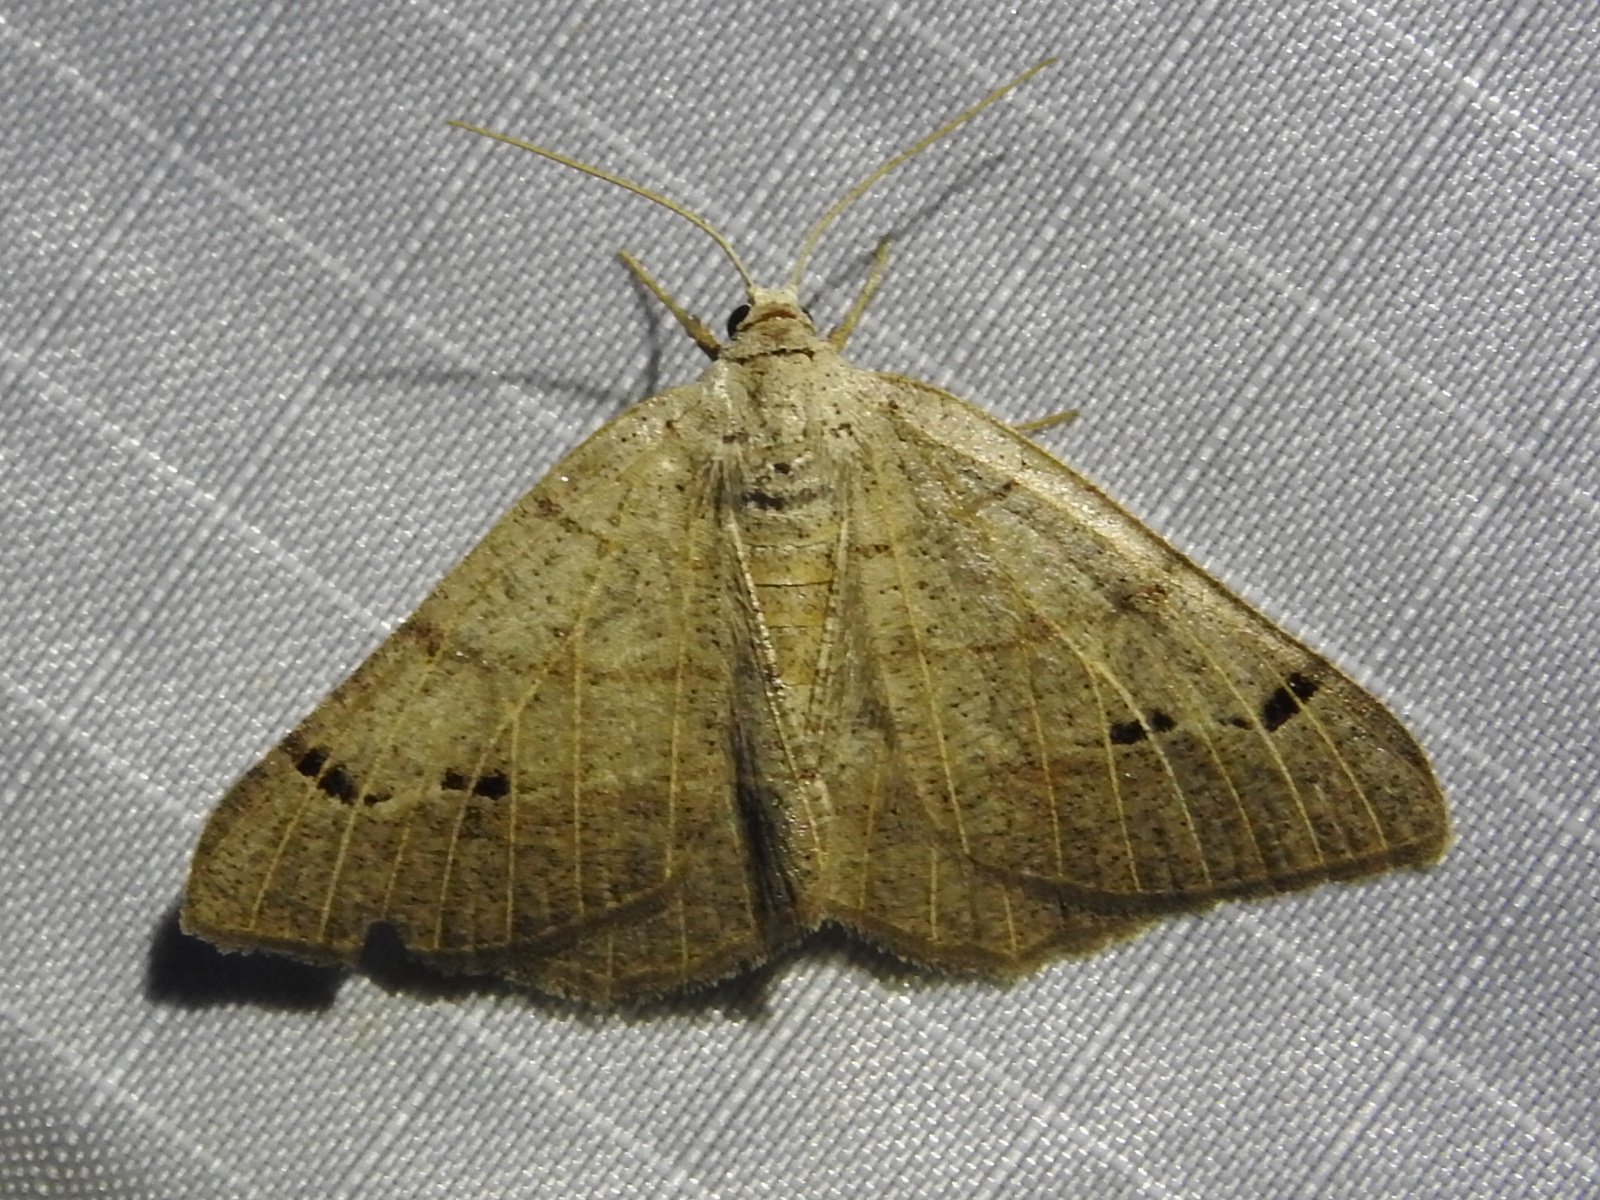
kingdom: Animalia
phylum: Arthropoda
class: Insecta
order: Lepidoptera
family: Geometridae
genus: Isturgia
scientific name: Isturgia dislocaria
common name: Pale-viened enconista
